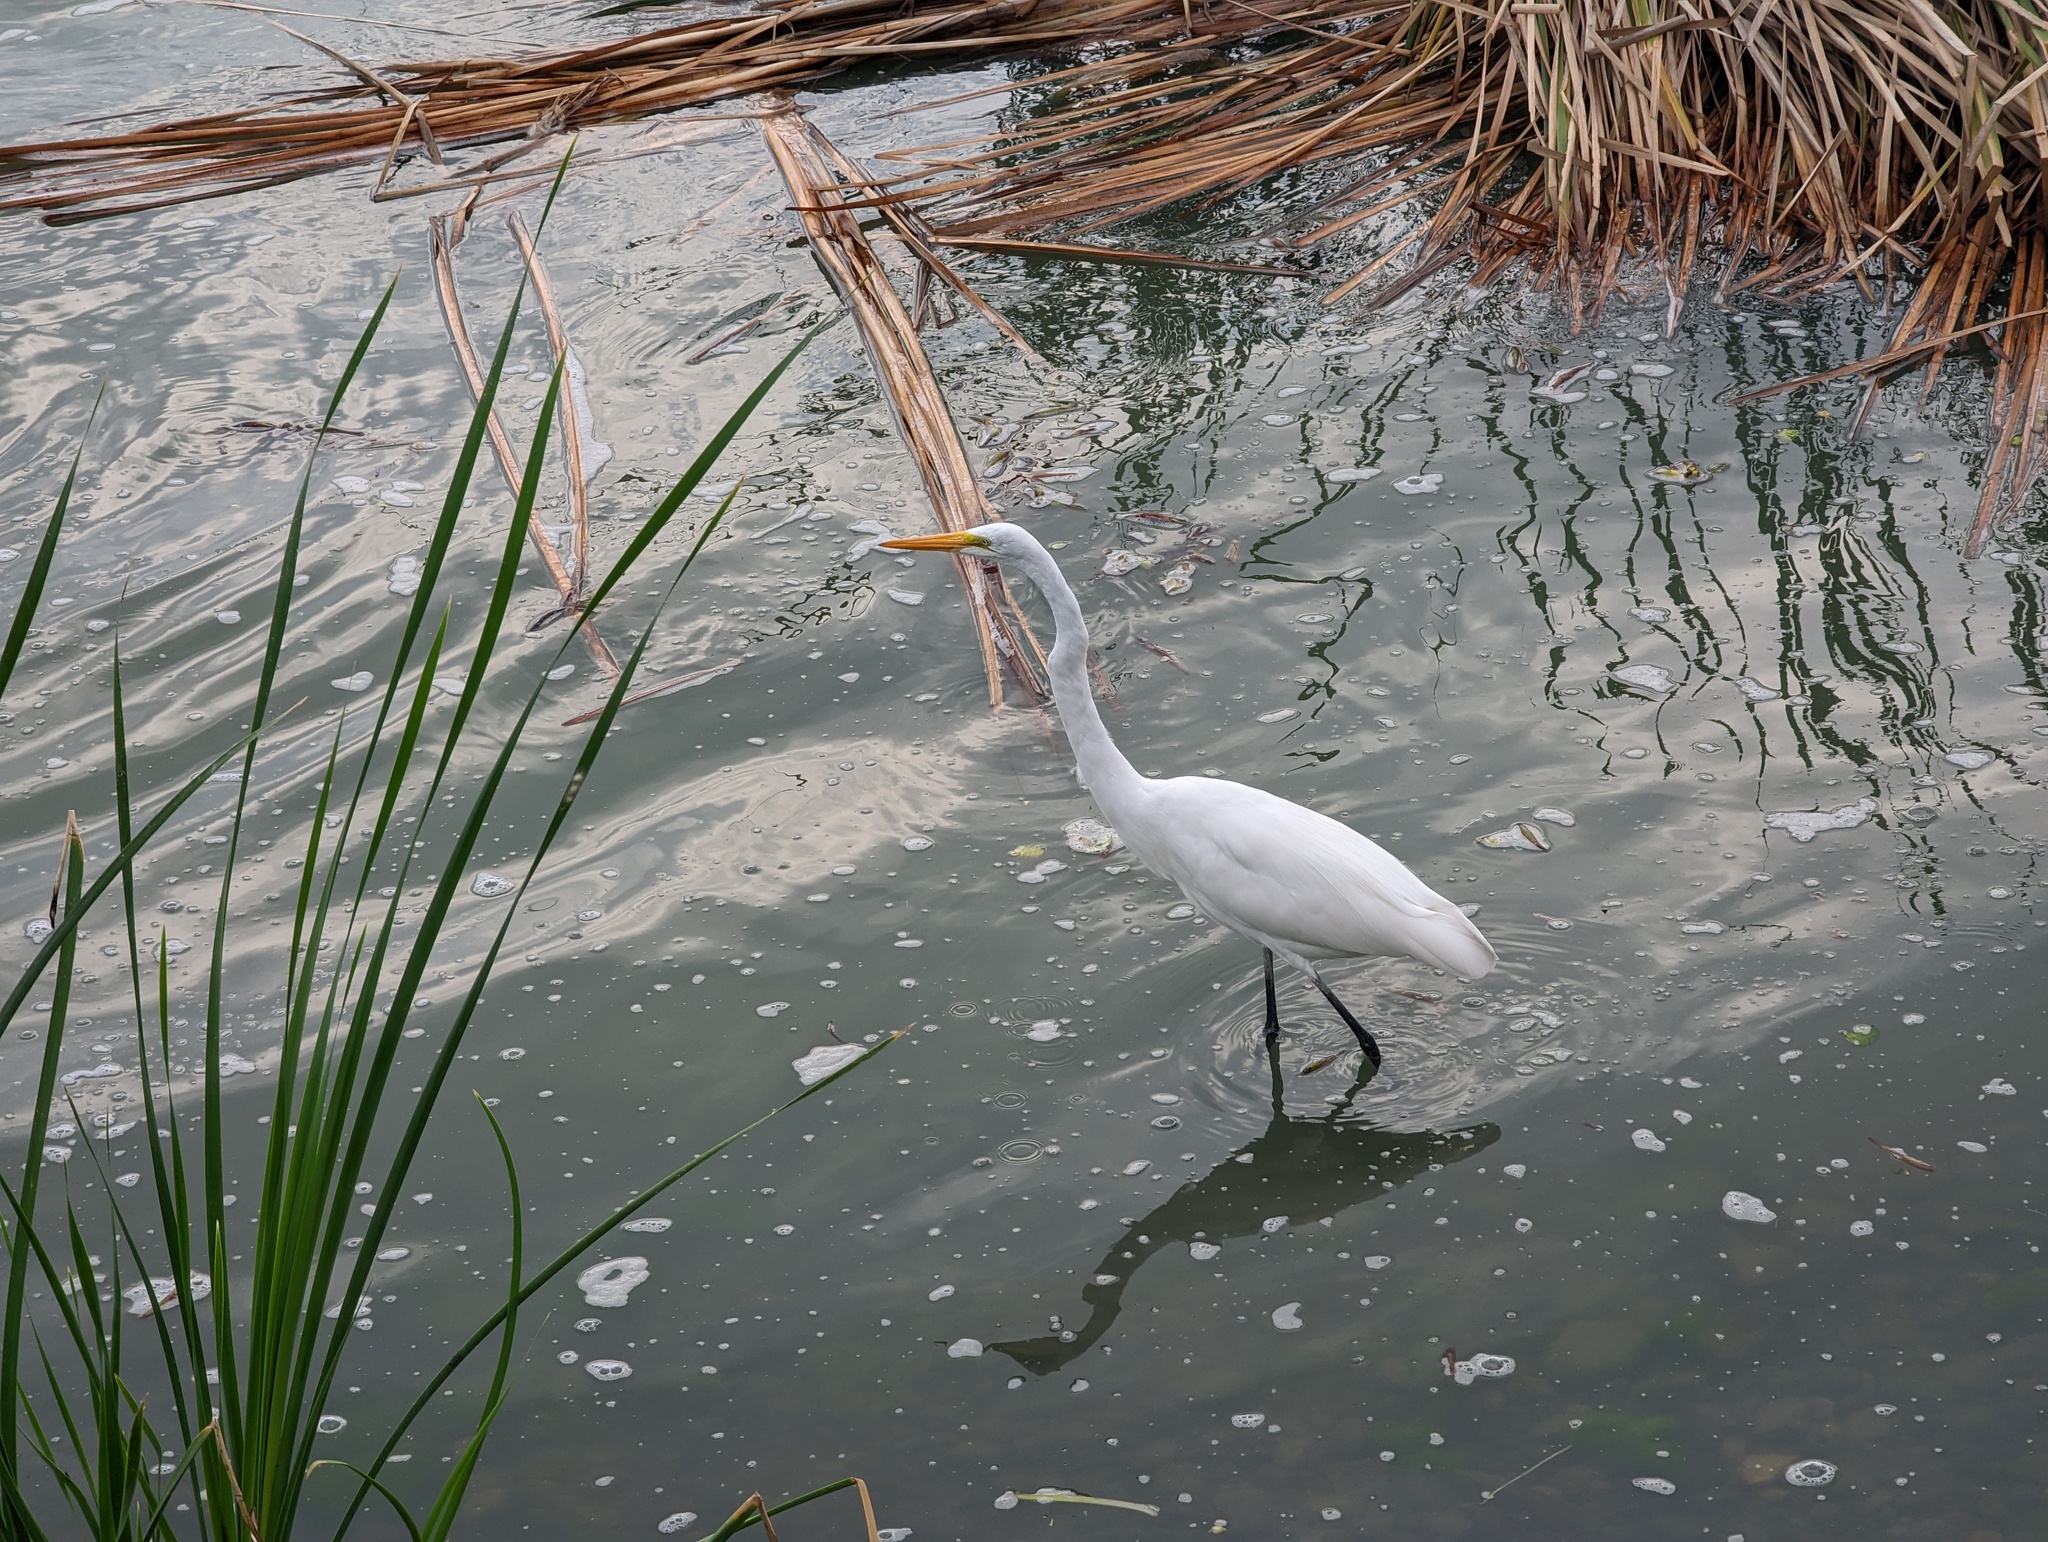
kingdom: Animalia
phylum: Chordata
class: Aves
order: Pelecaniformes
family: Ardeidae
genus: Ardea
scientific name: Ardea alba
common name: Great egret
